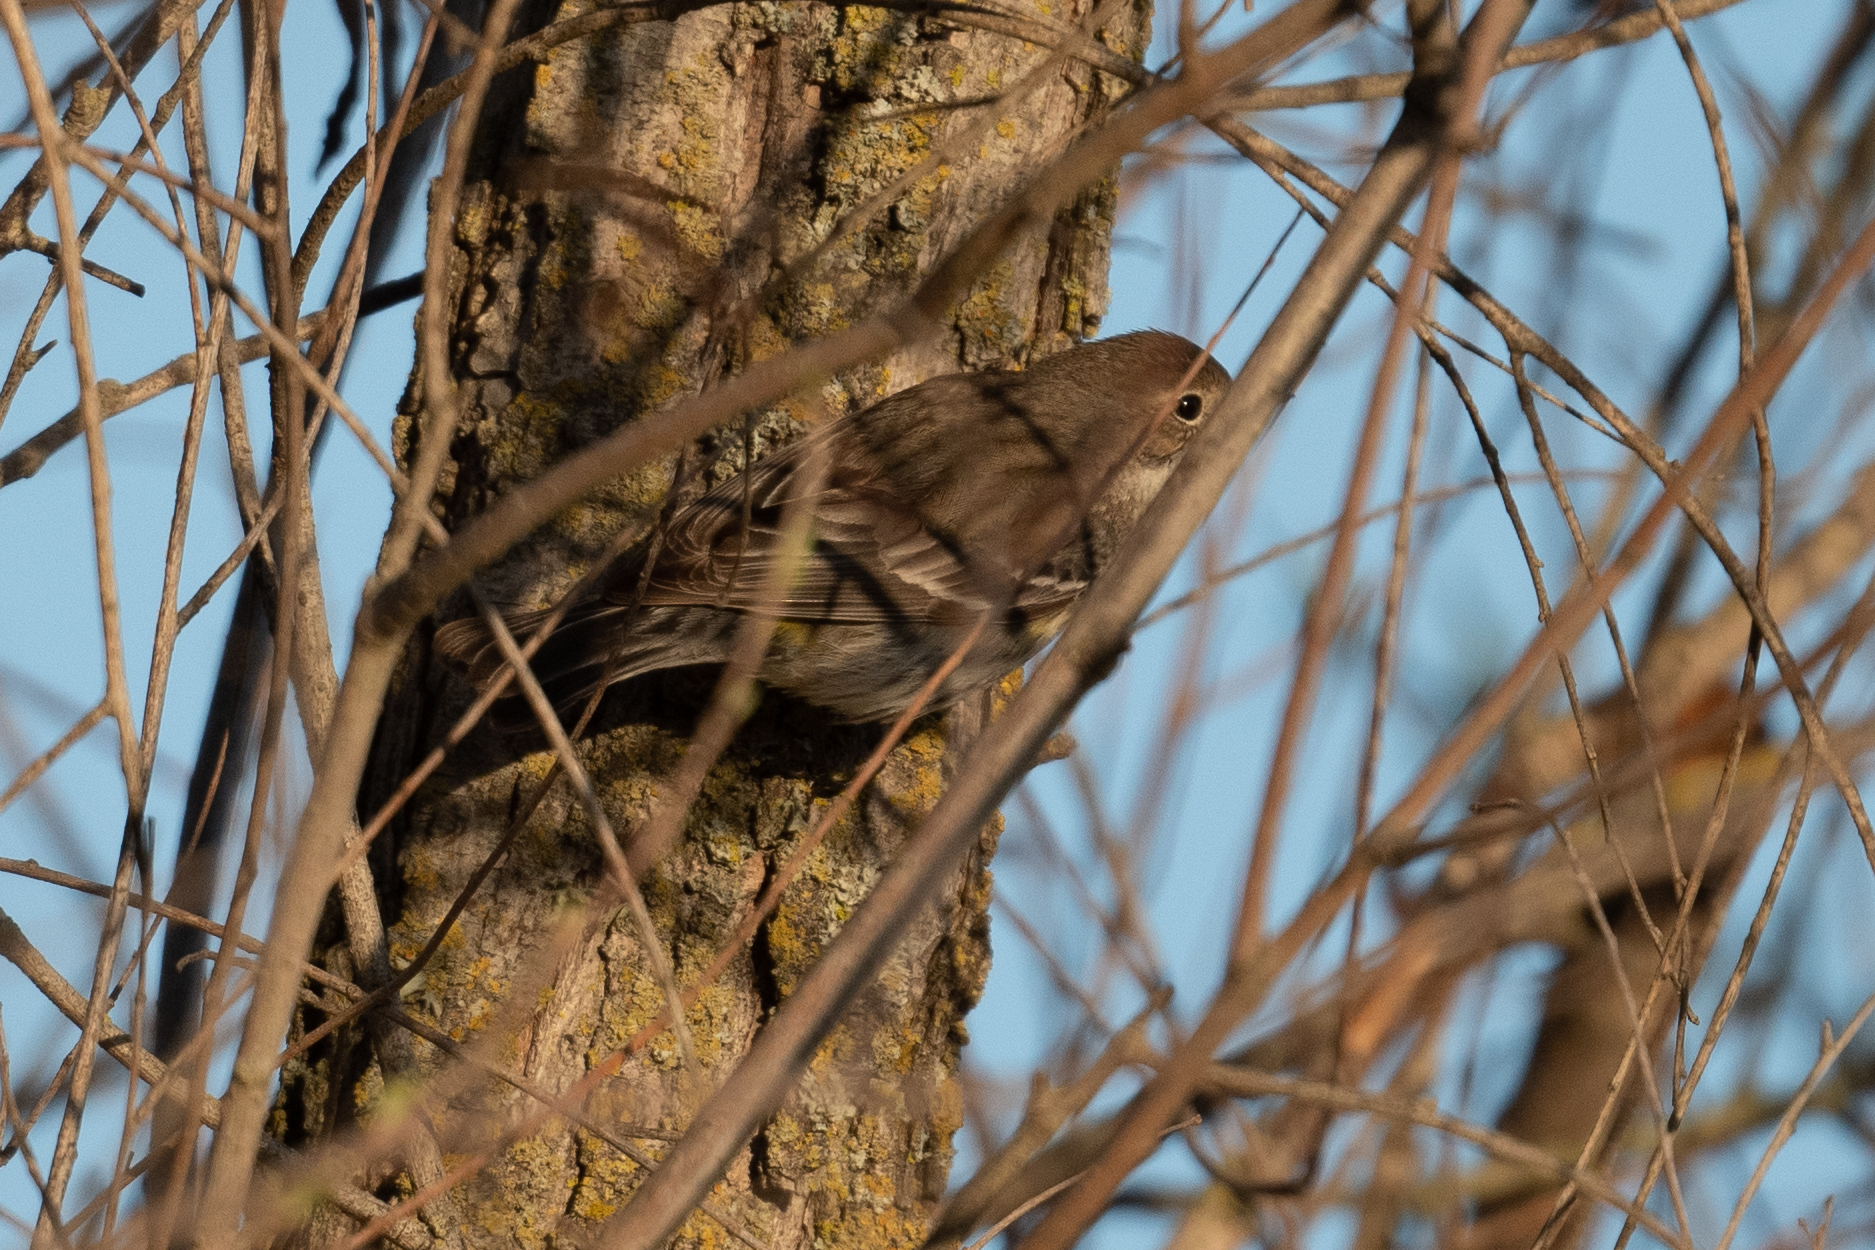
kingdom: Animalia
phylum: Chordata
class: Aves
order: Passeriformes
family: Parulidae
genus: Setophaga
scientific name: Setophaga coronata
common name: Myrtle warbler
